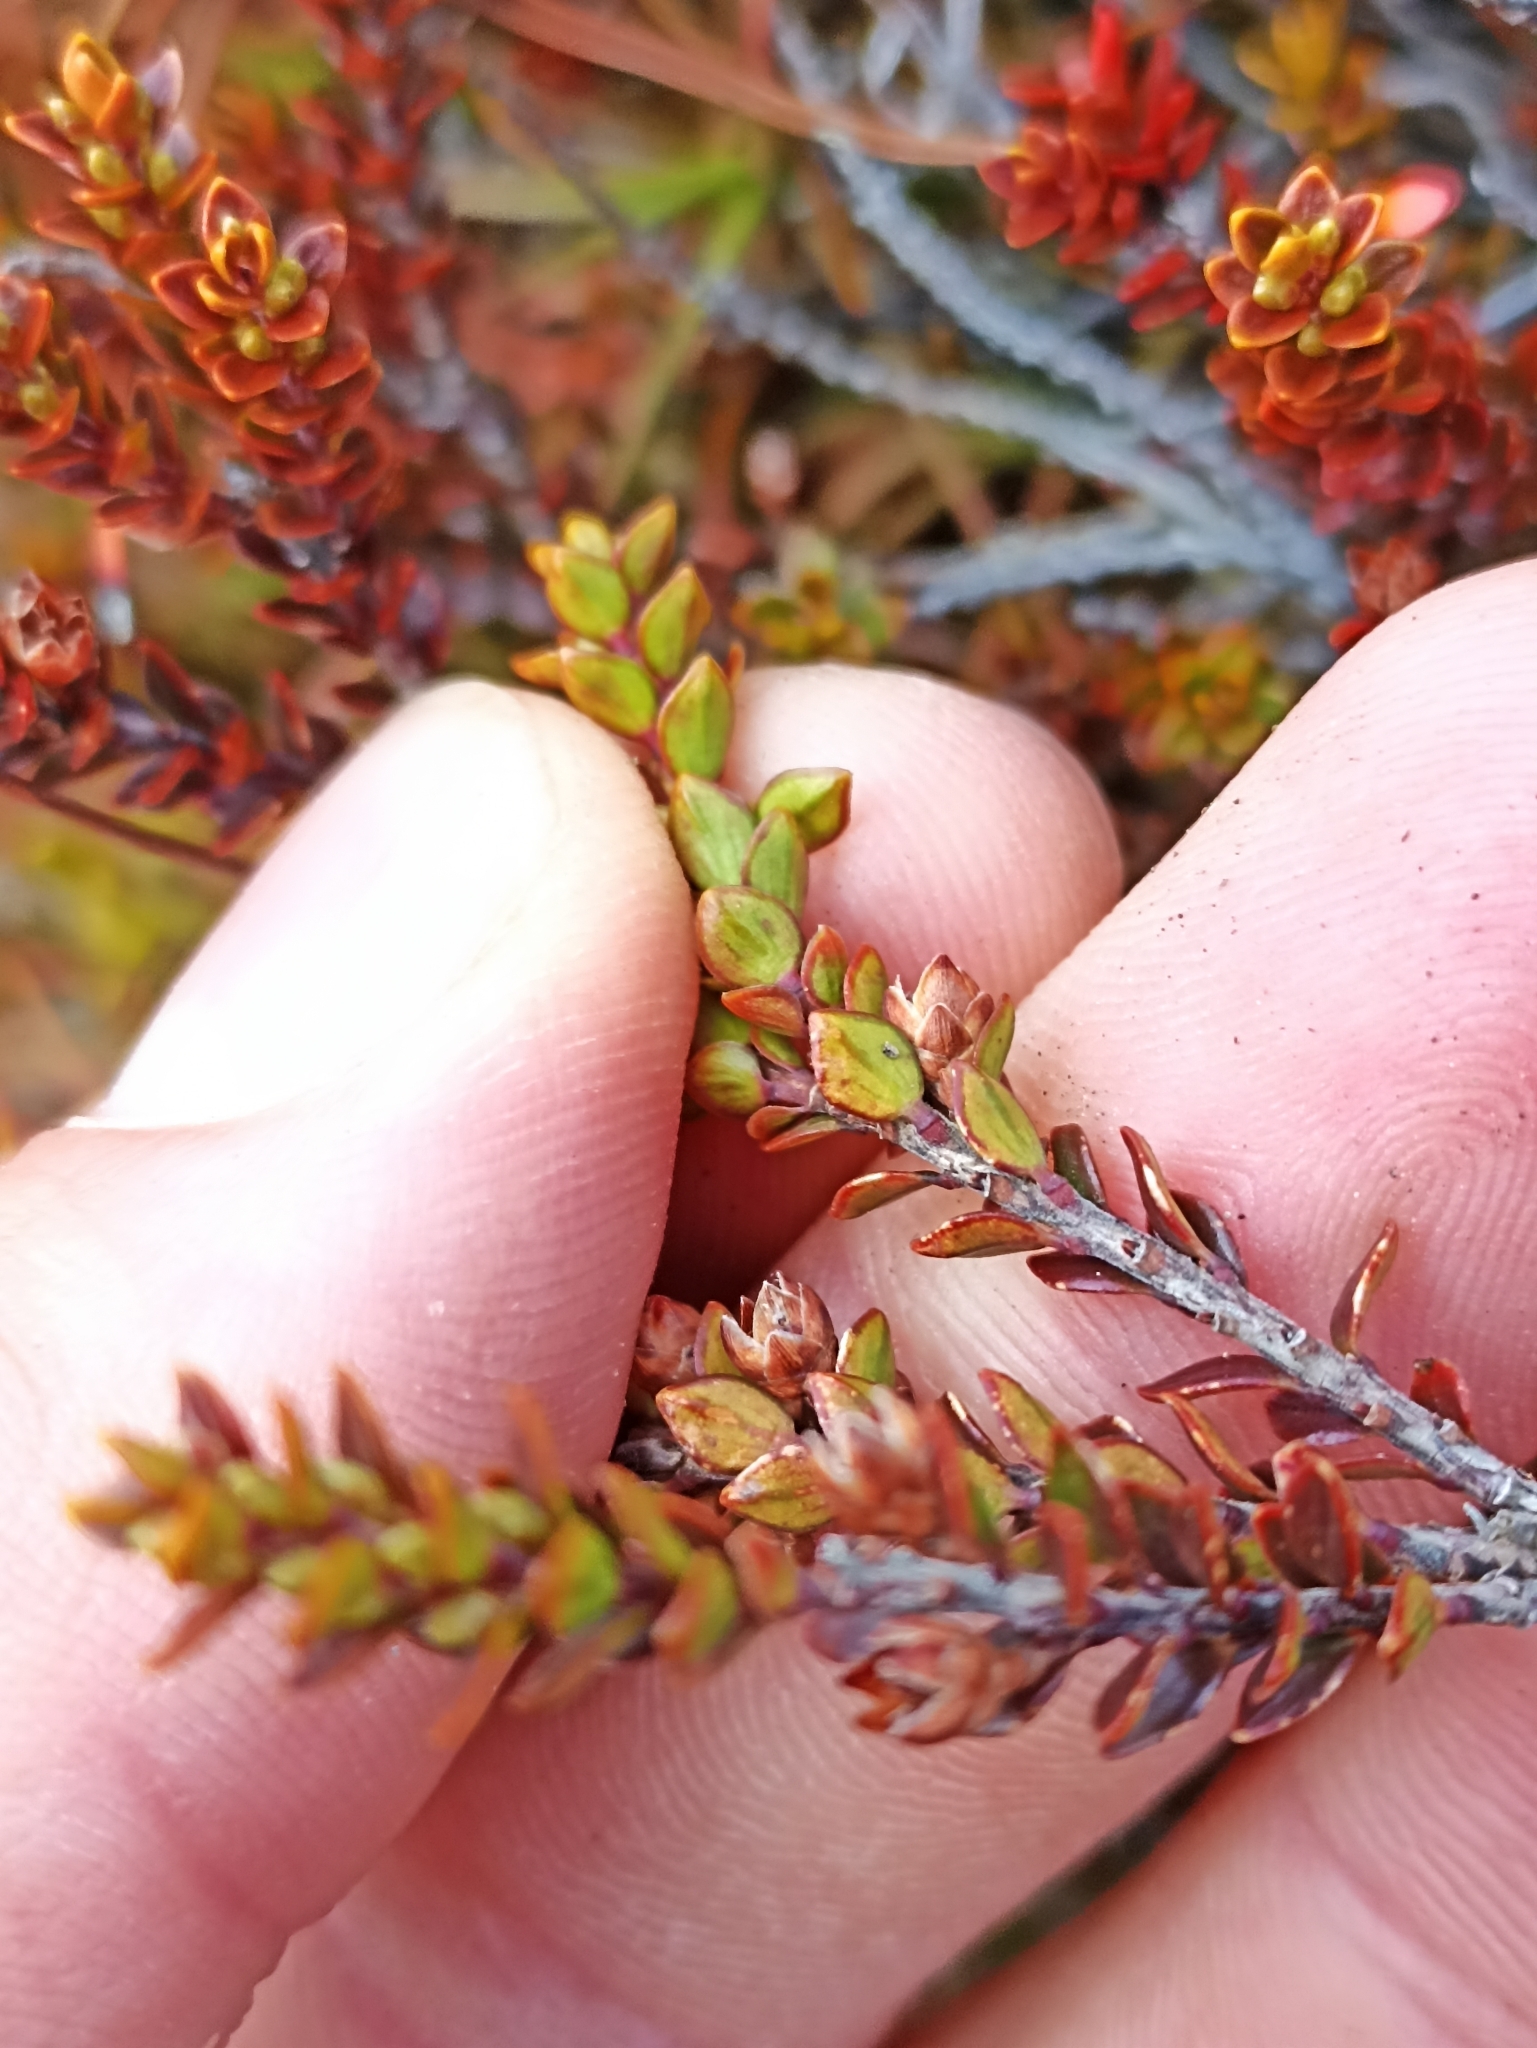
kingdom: Plantae
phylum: Tracheophyta
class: Magnoliopsida
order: Ericales
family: Ericaceae
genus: Epacris
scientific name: Epacris alpina
